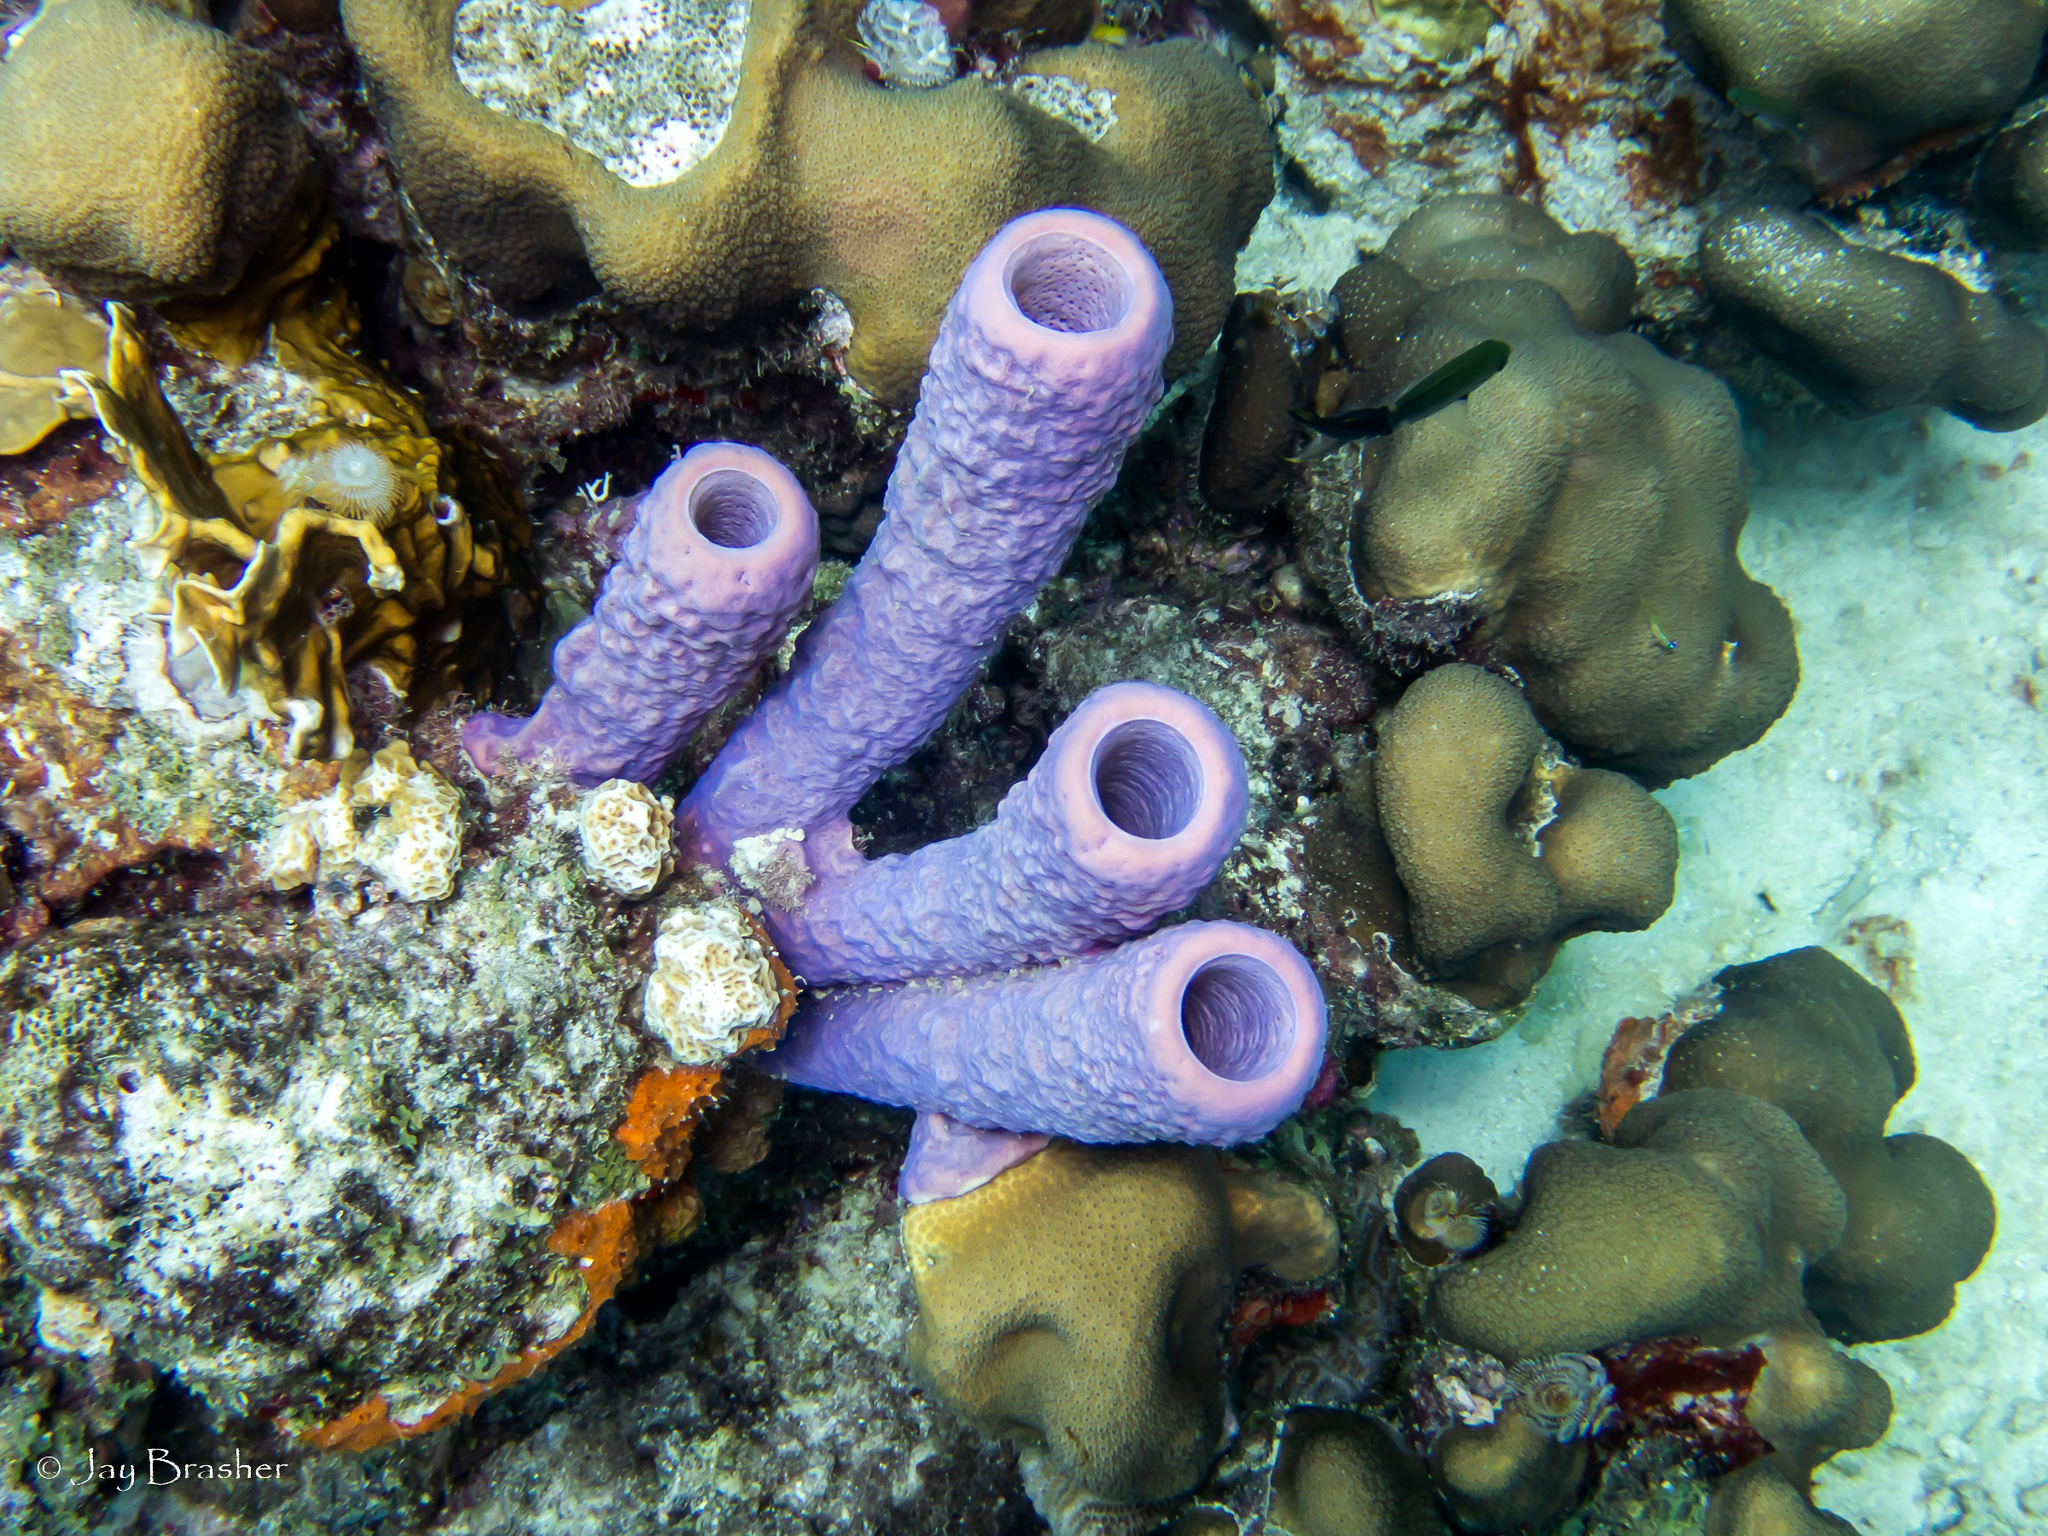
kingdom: Animalia
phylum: Cnidaria
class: Hydrozoa
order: Anthoathecata
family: Milleporidae
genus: Millepora
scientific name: Millepora complanata
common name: Bladed fire coral
